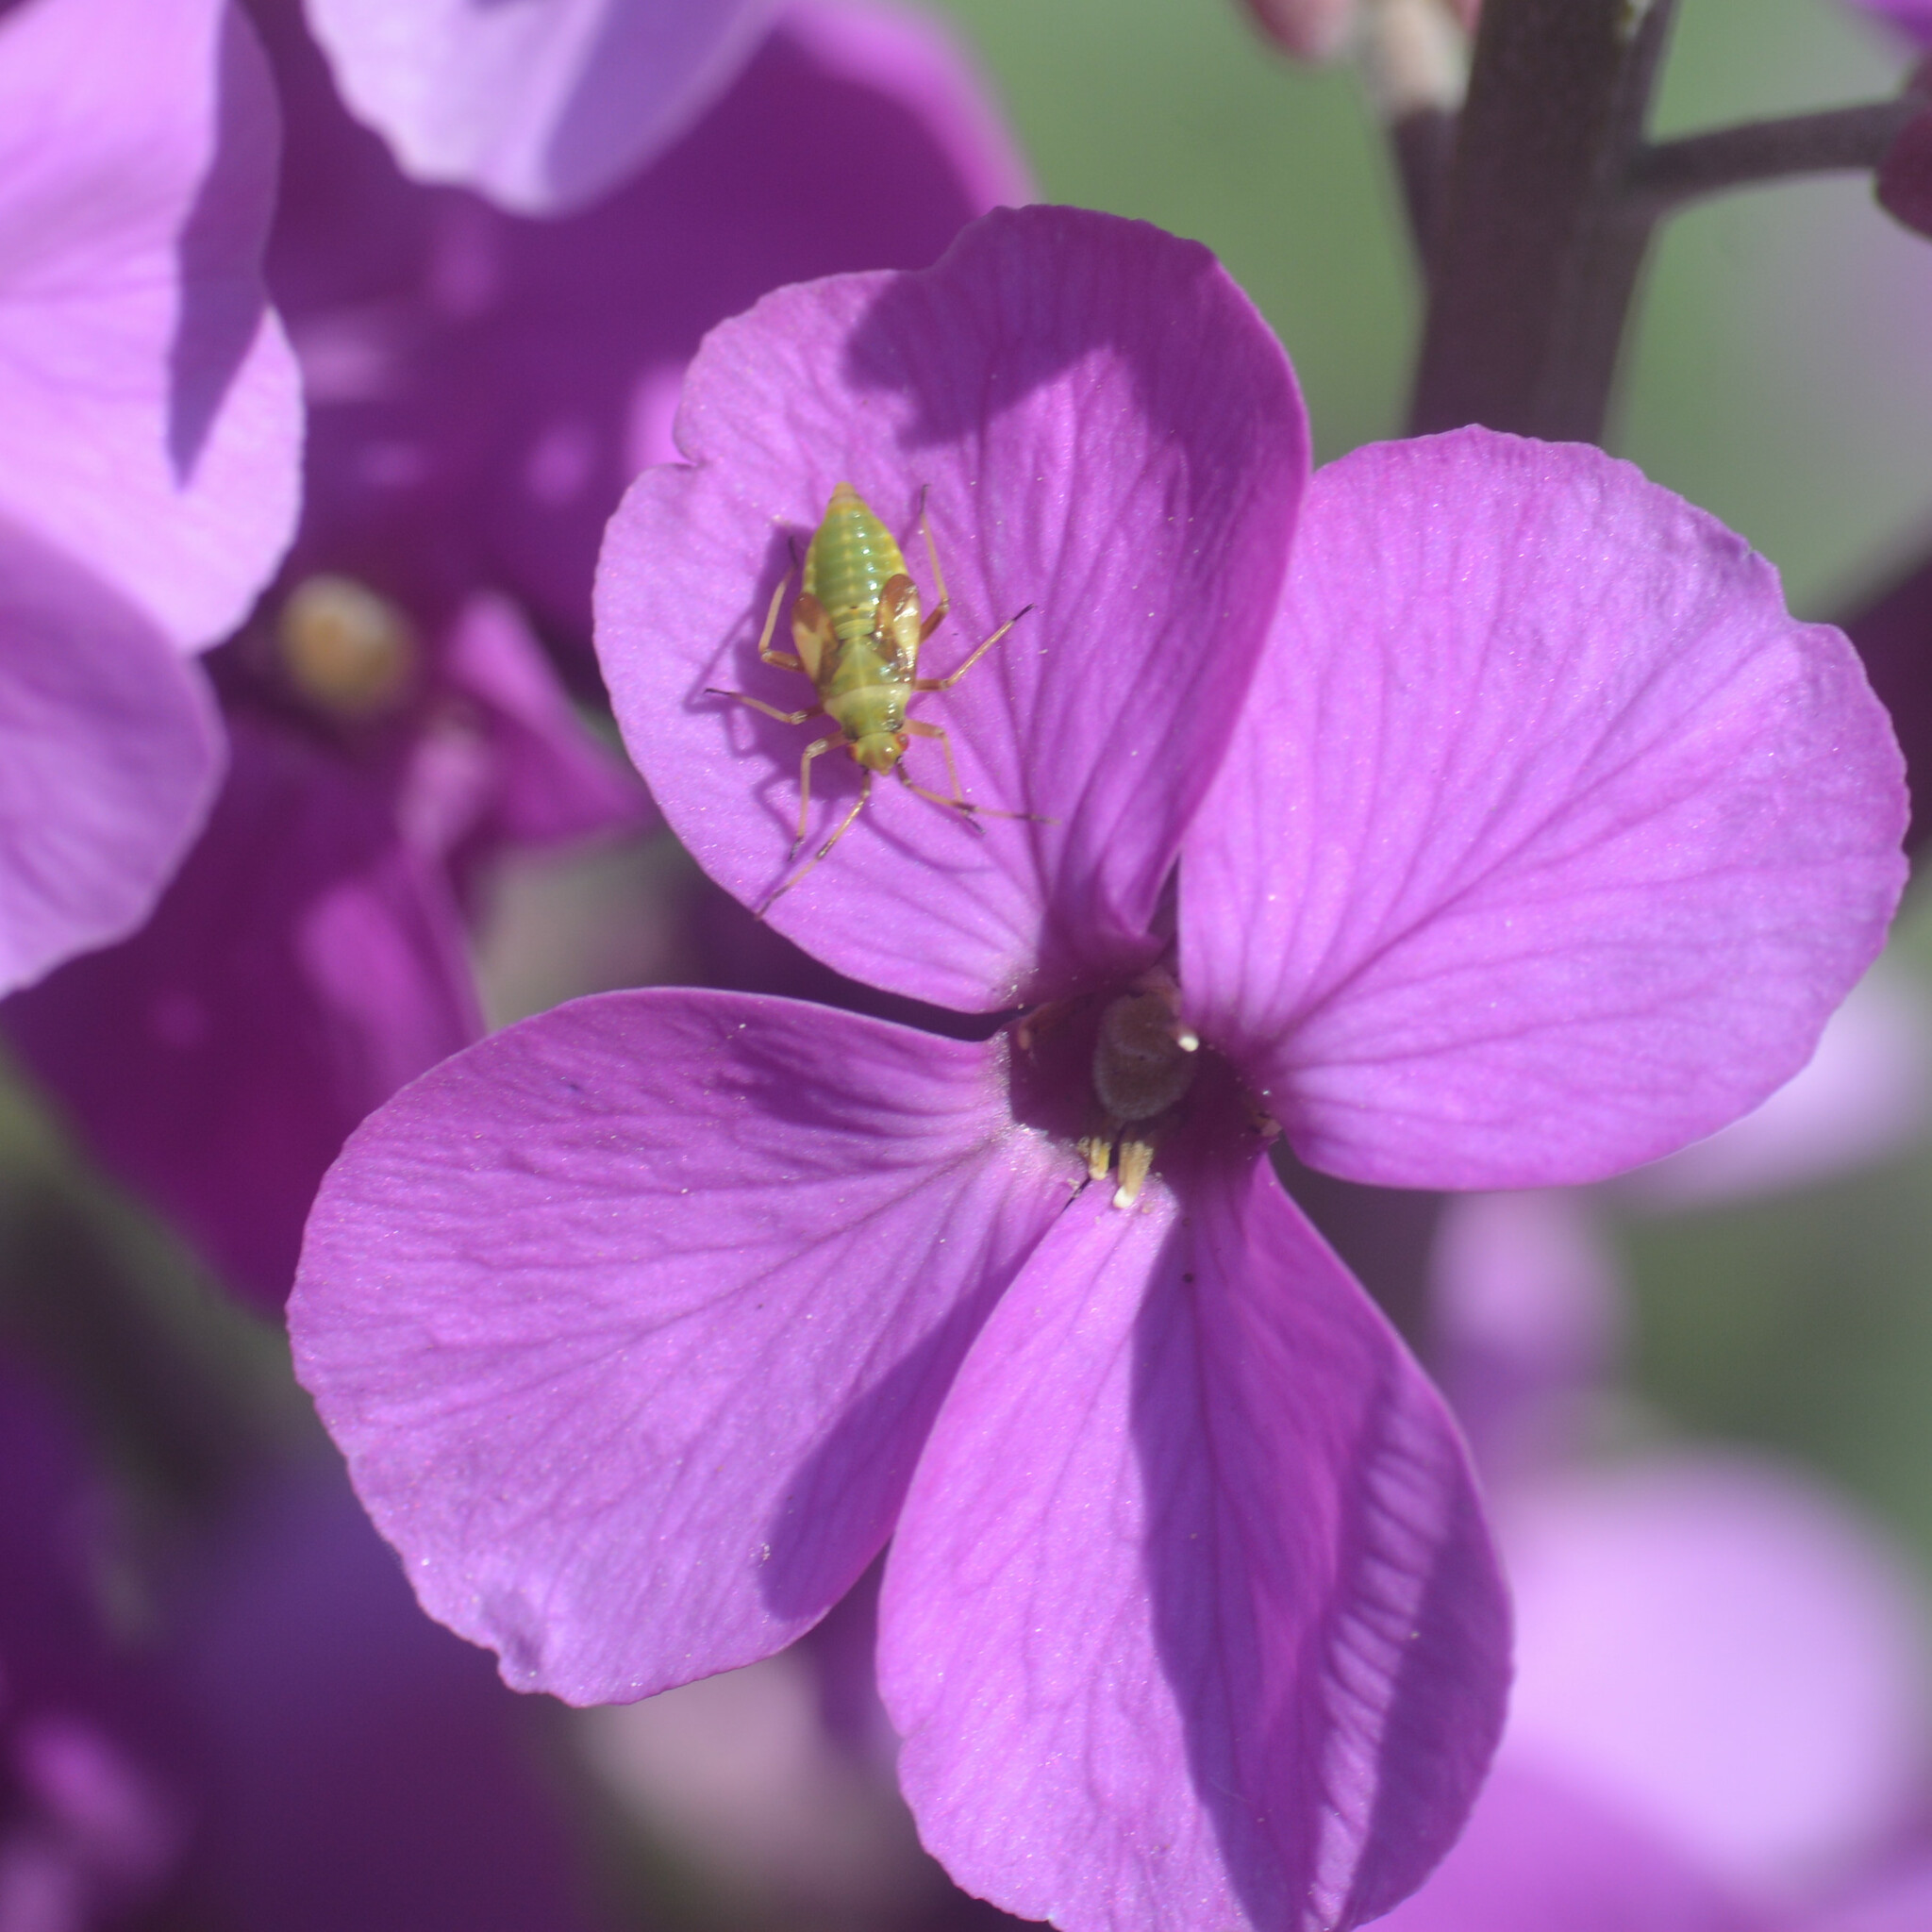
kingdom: Animalia
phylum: Arthropoda
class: Insecta
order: Hemiptera
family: Miridae
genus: Dryophilocoris
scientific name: Dryophilocoris flavoquadrimaculatus
